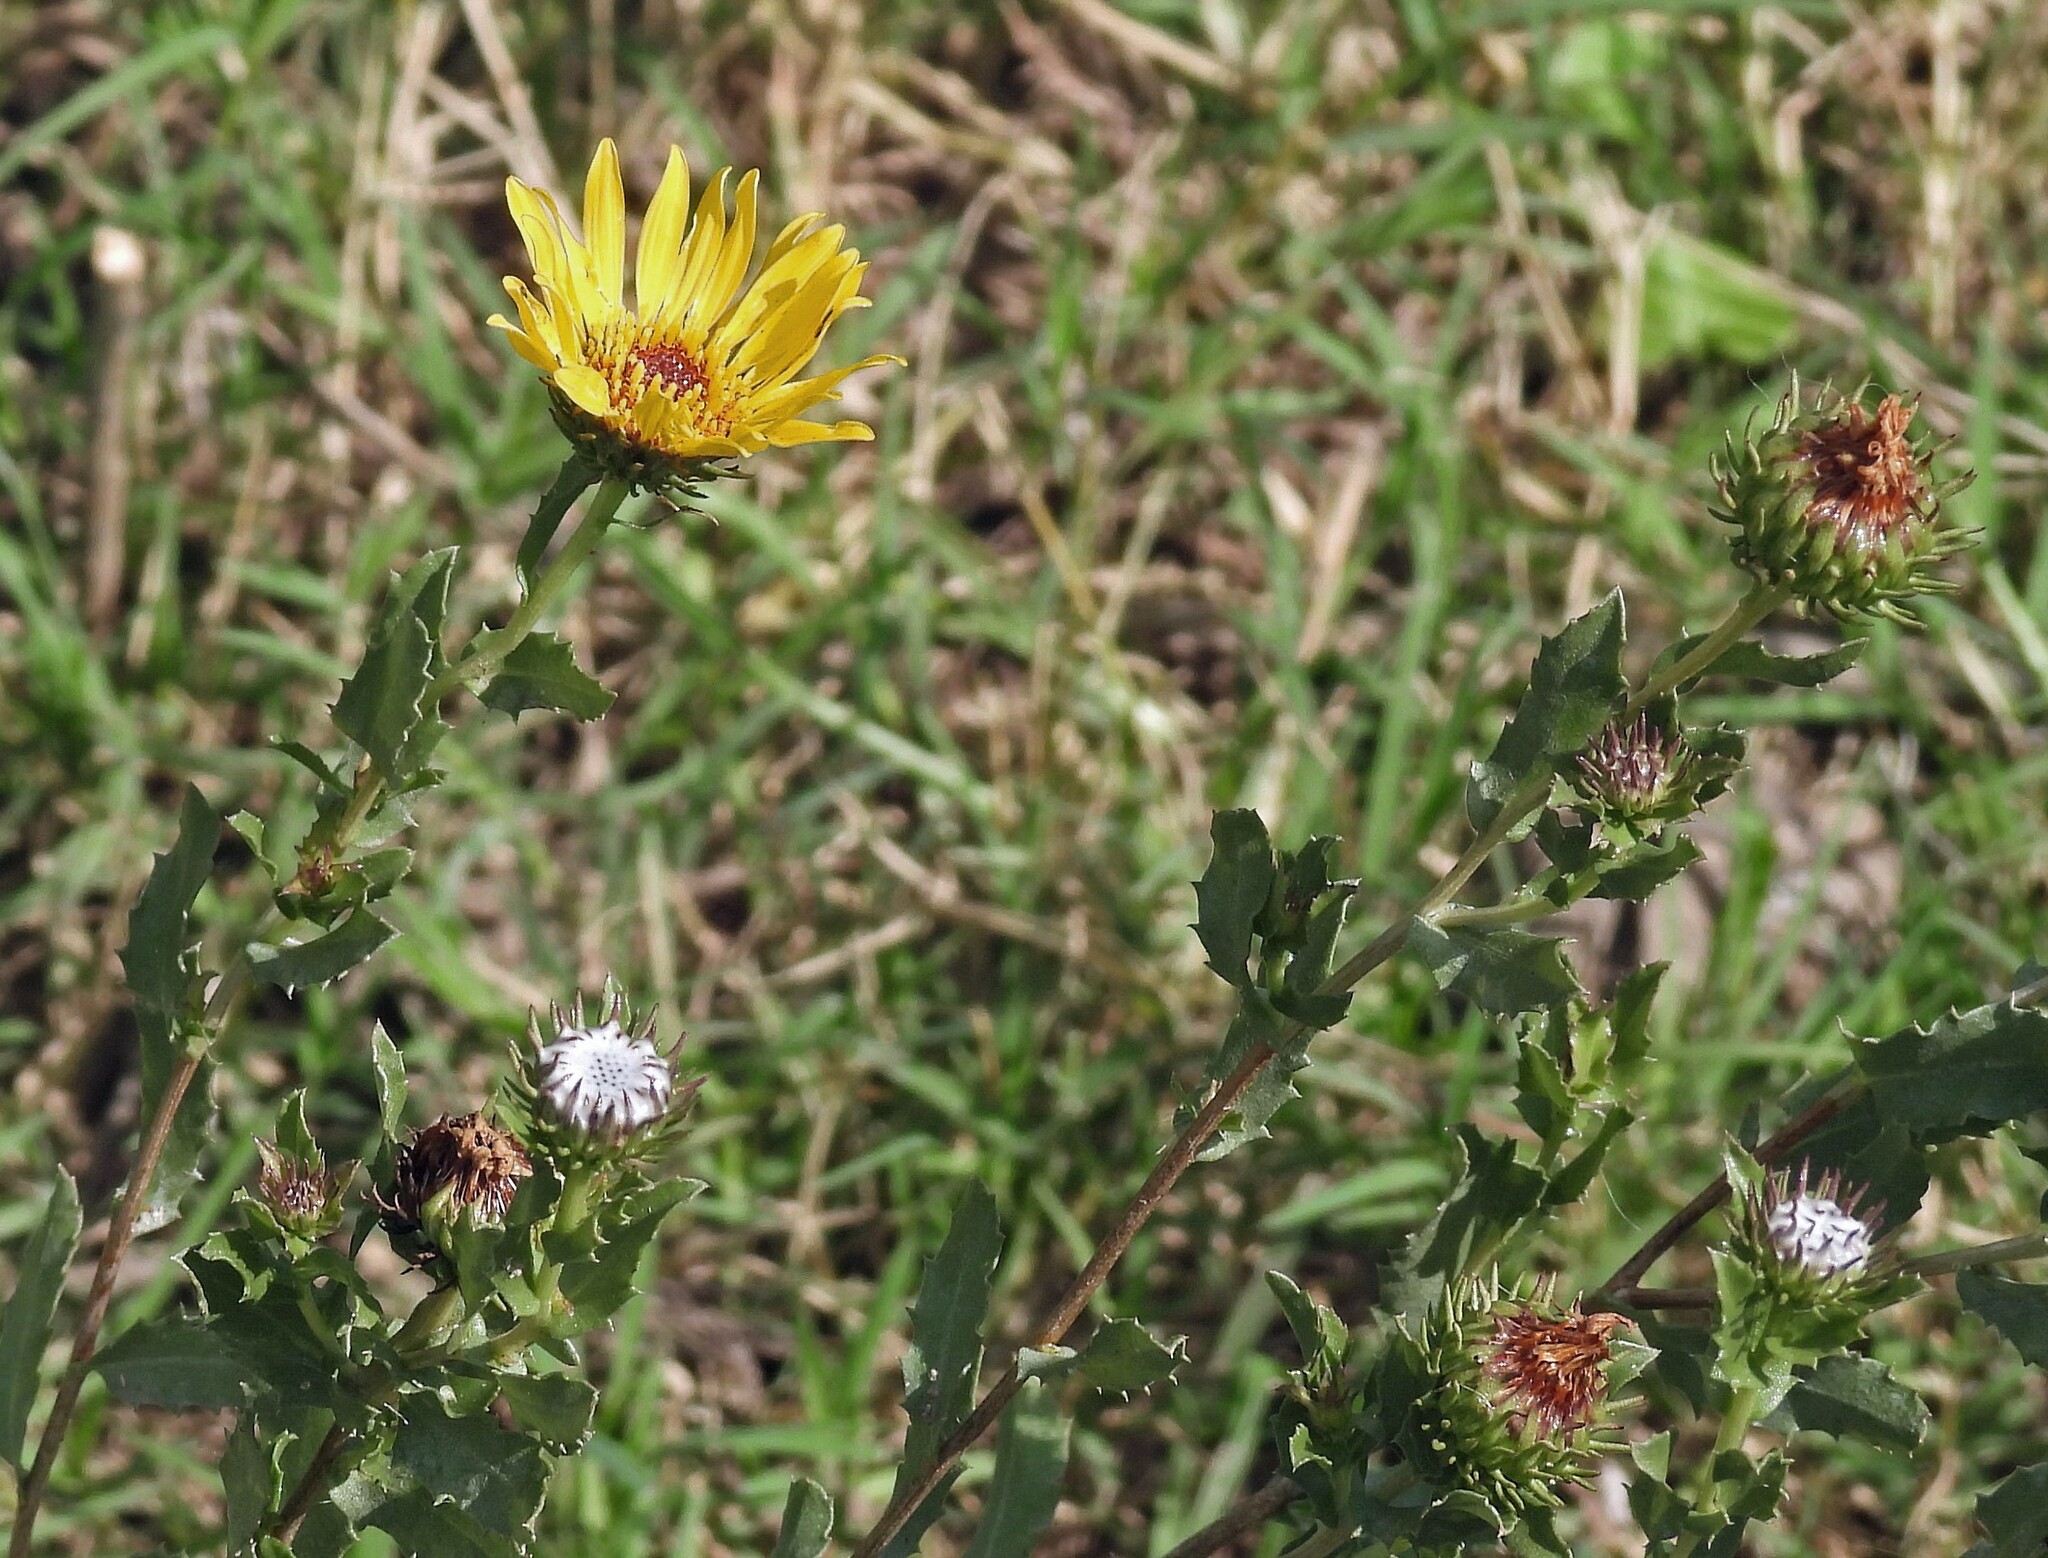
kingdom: Plantae
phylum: Tracheophyta
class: Magnoliopsida
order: Asterales
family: Asteraceae
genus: Grindelia
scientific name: Grindelia pulchella
